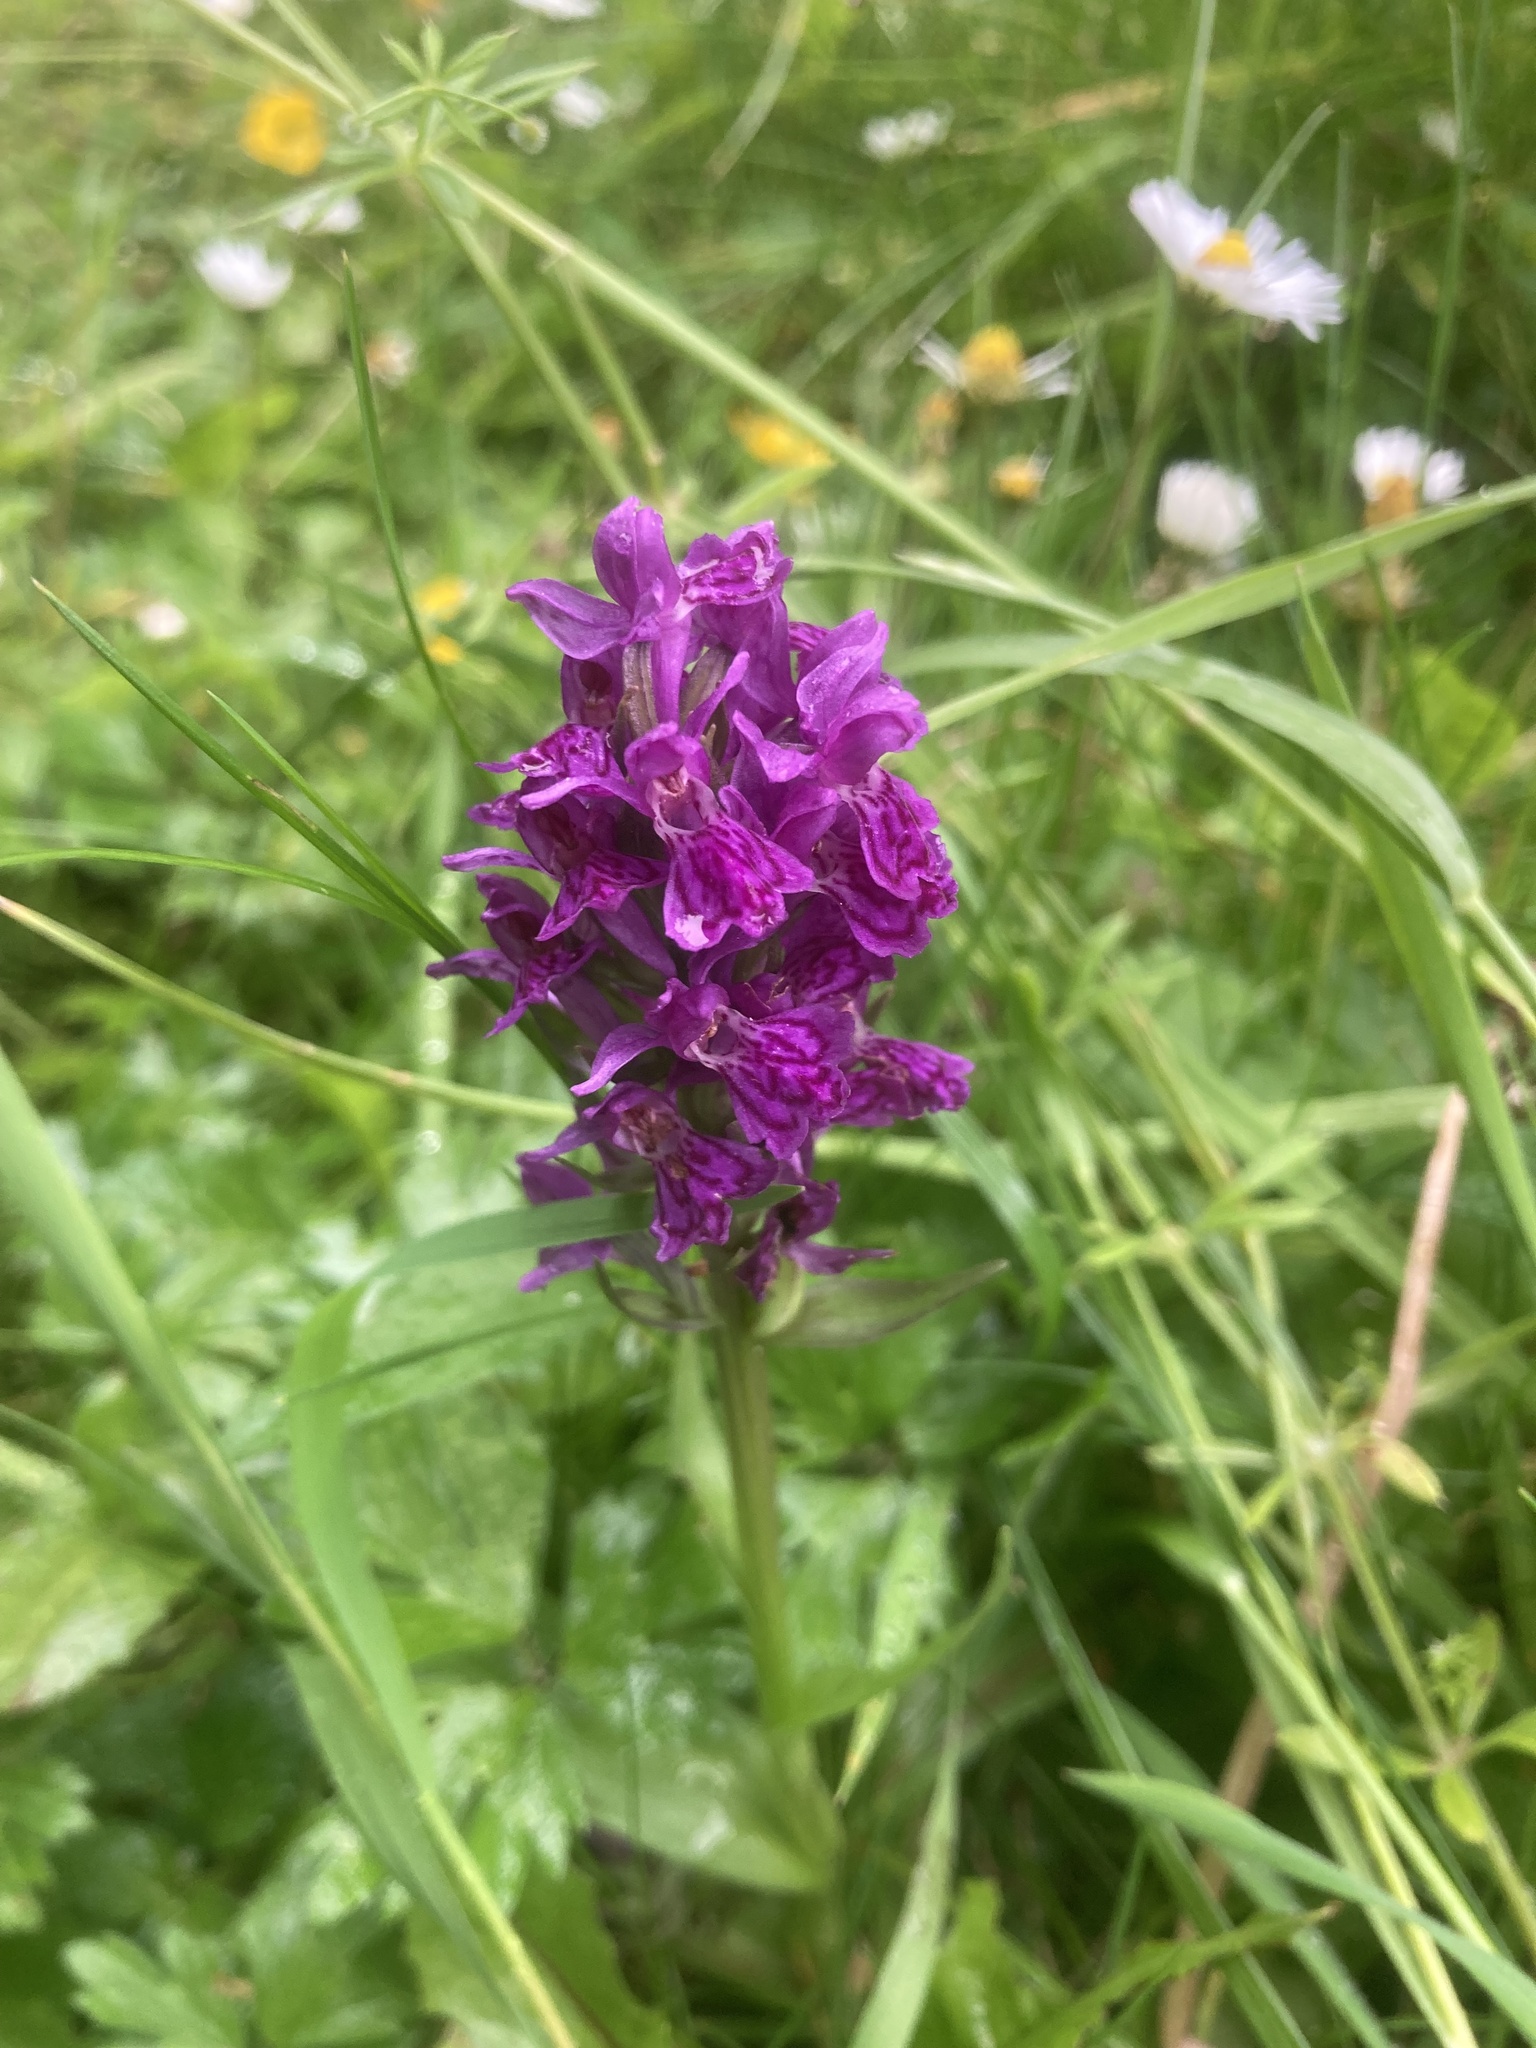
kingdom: Plantae
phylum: Tracheophyta
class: Liliopsida
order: Asparagales
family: Orchidaceae
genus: Dactylorhiza
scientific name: Dactylorhiza majalis
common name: Marsh orchid
